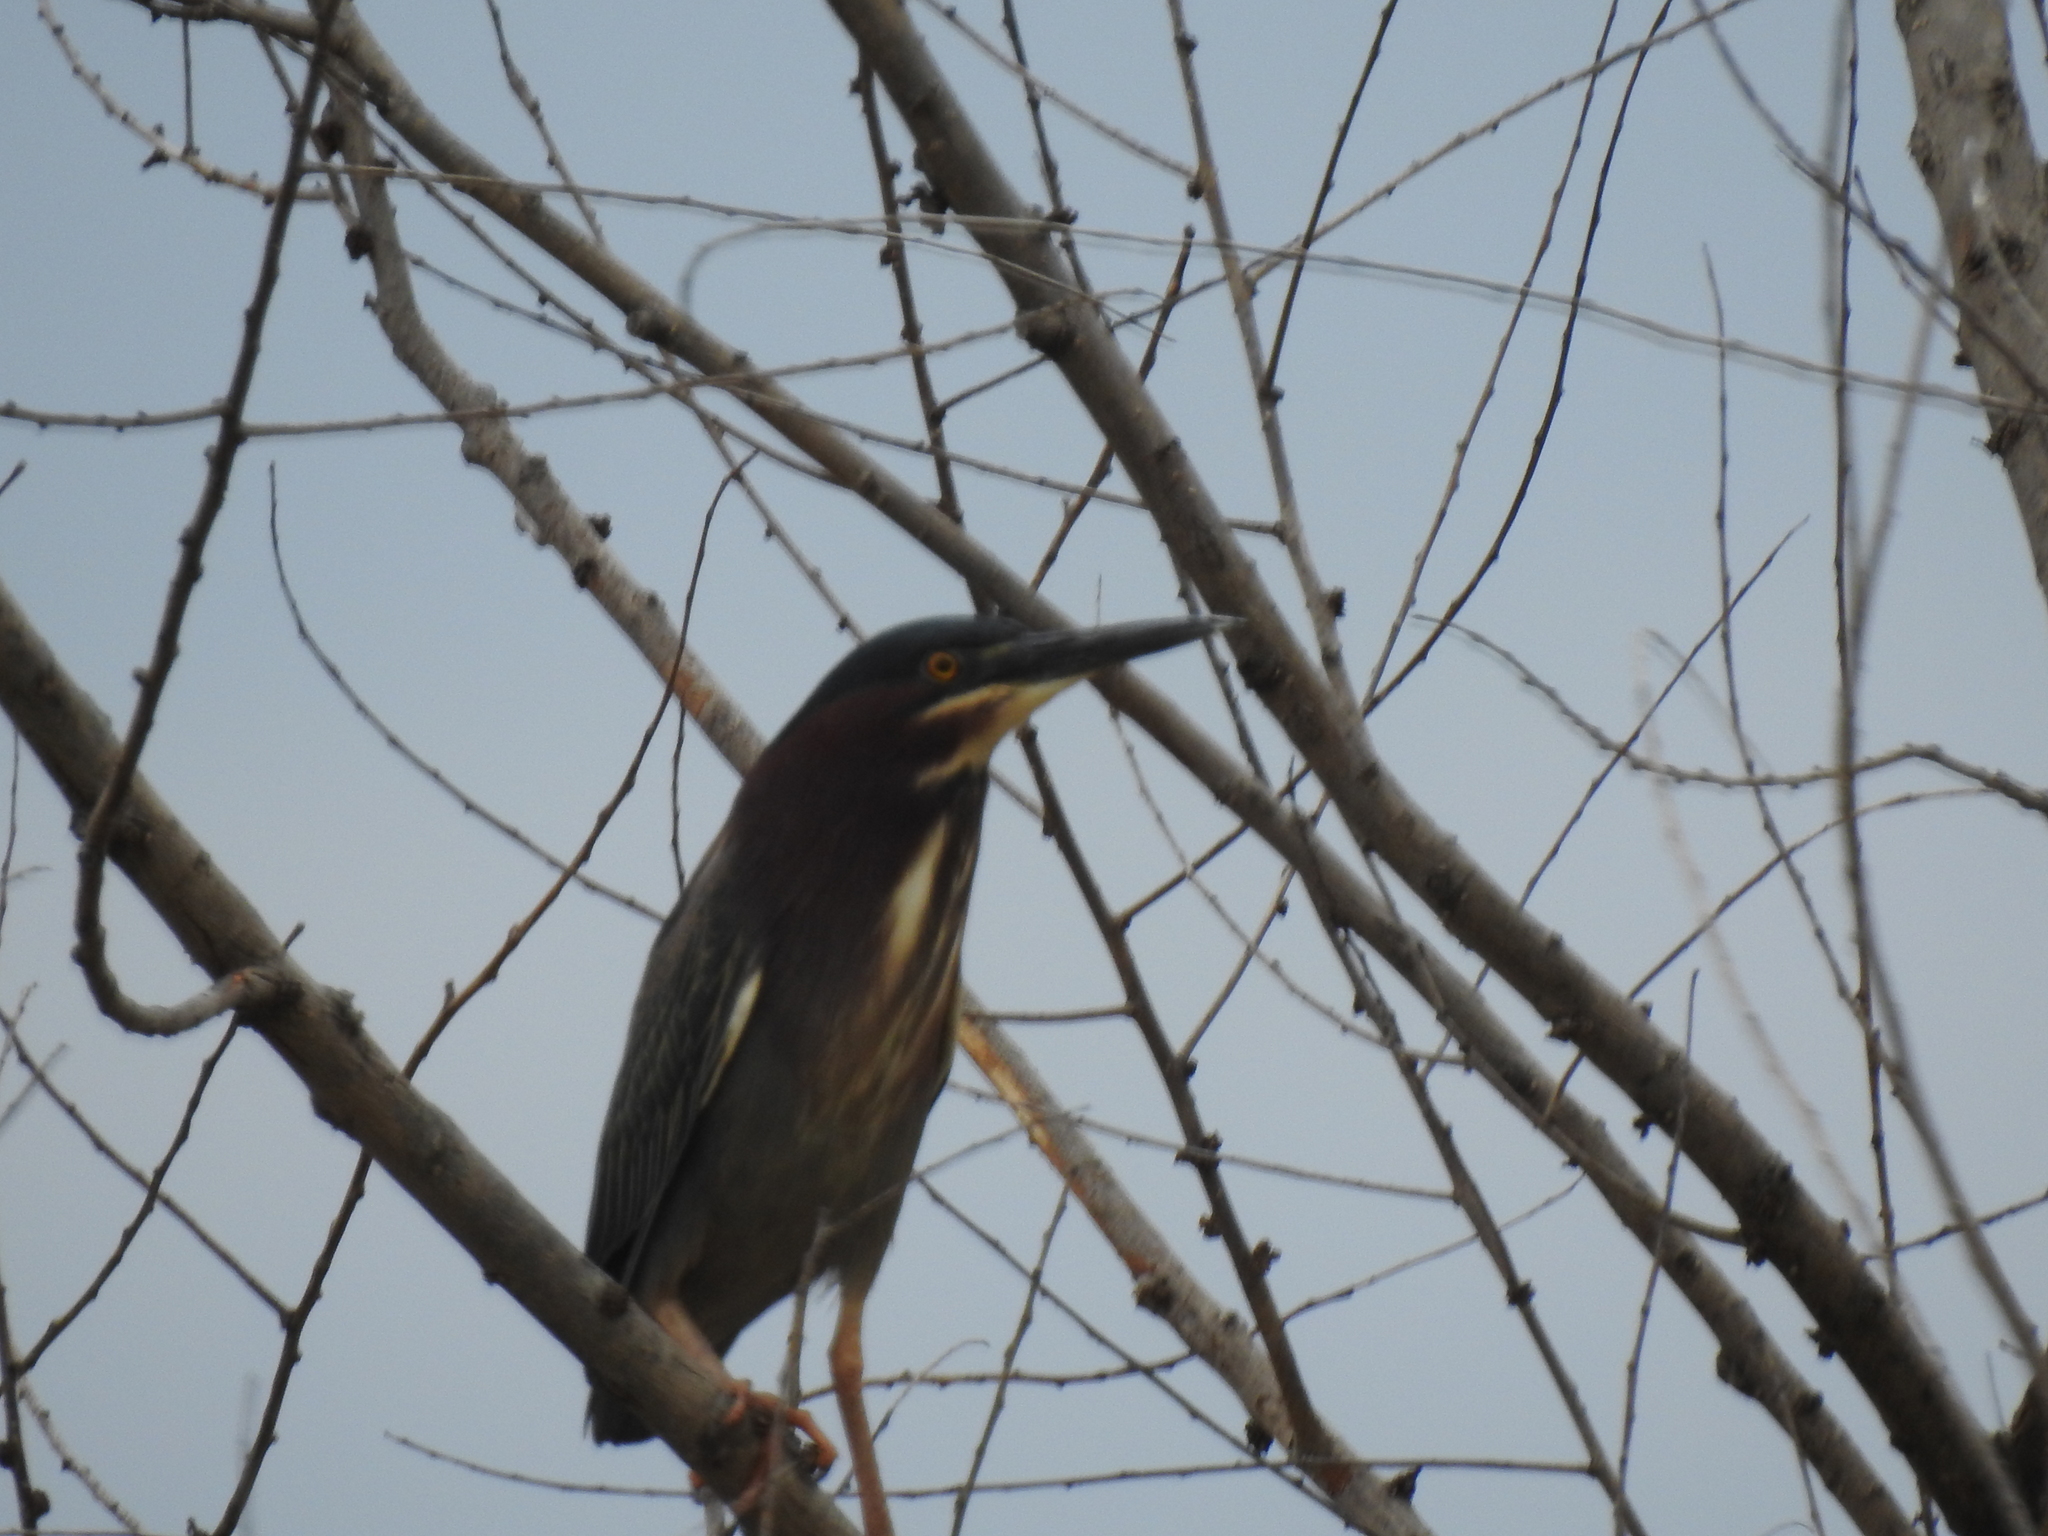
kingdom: Animalia
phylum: Chordata
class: Aves
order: Pelecaniformes
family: Ardeidae
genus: Butorides
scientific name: Butorides virescens
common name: Green heron
